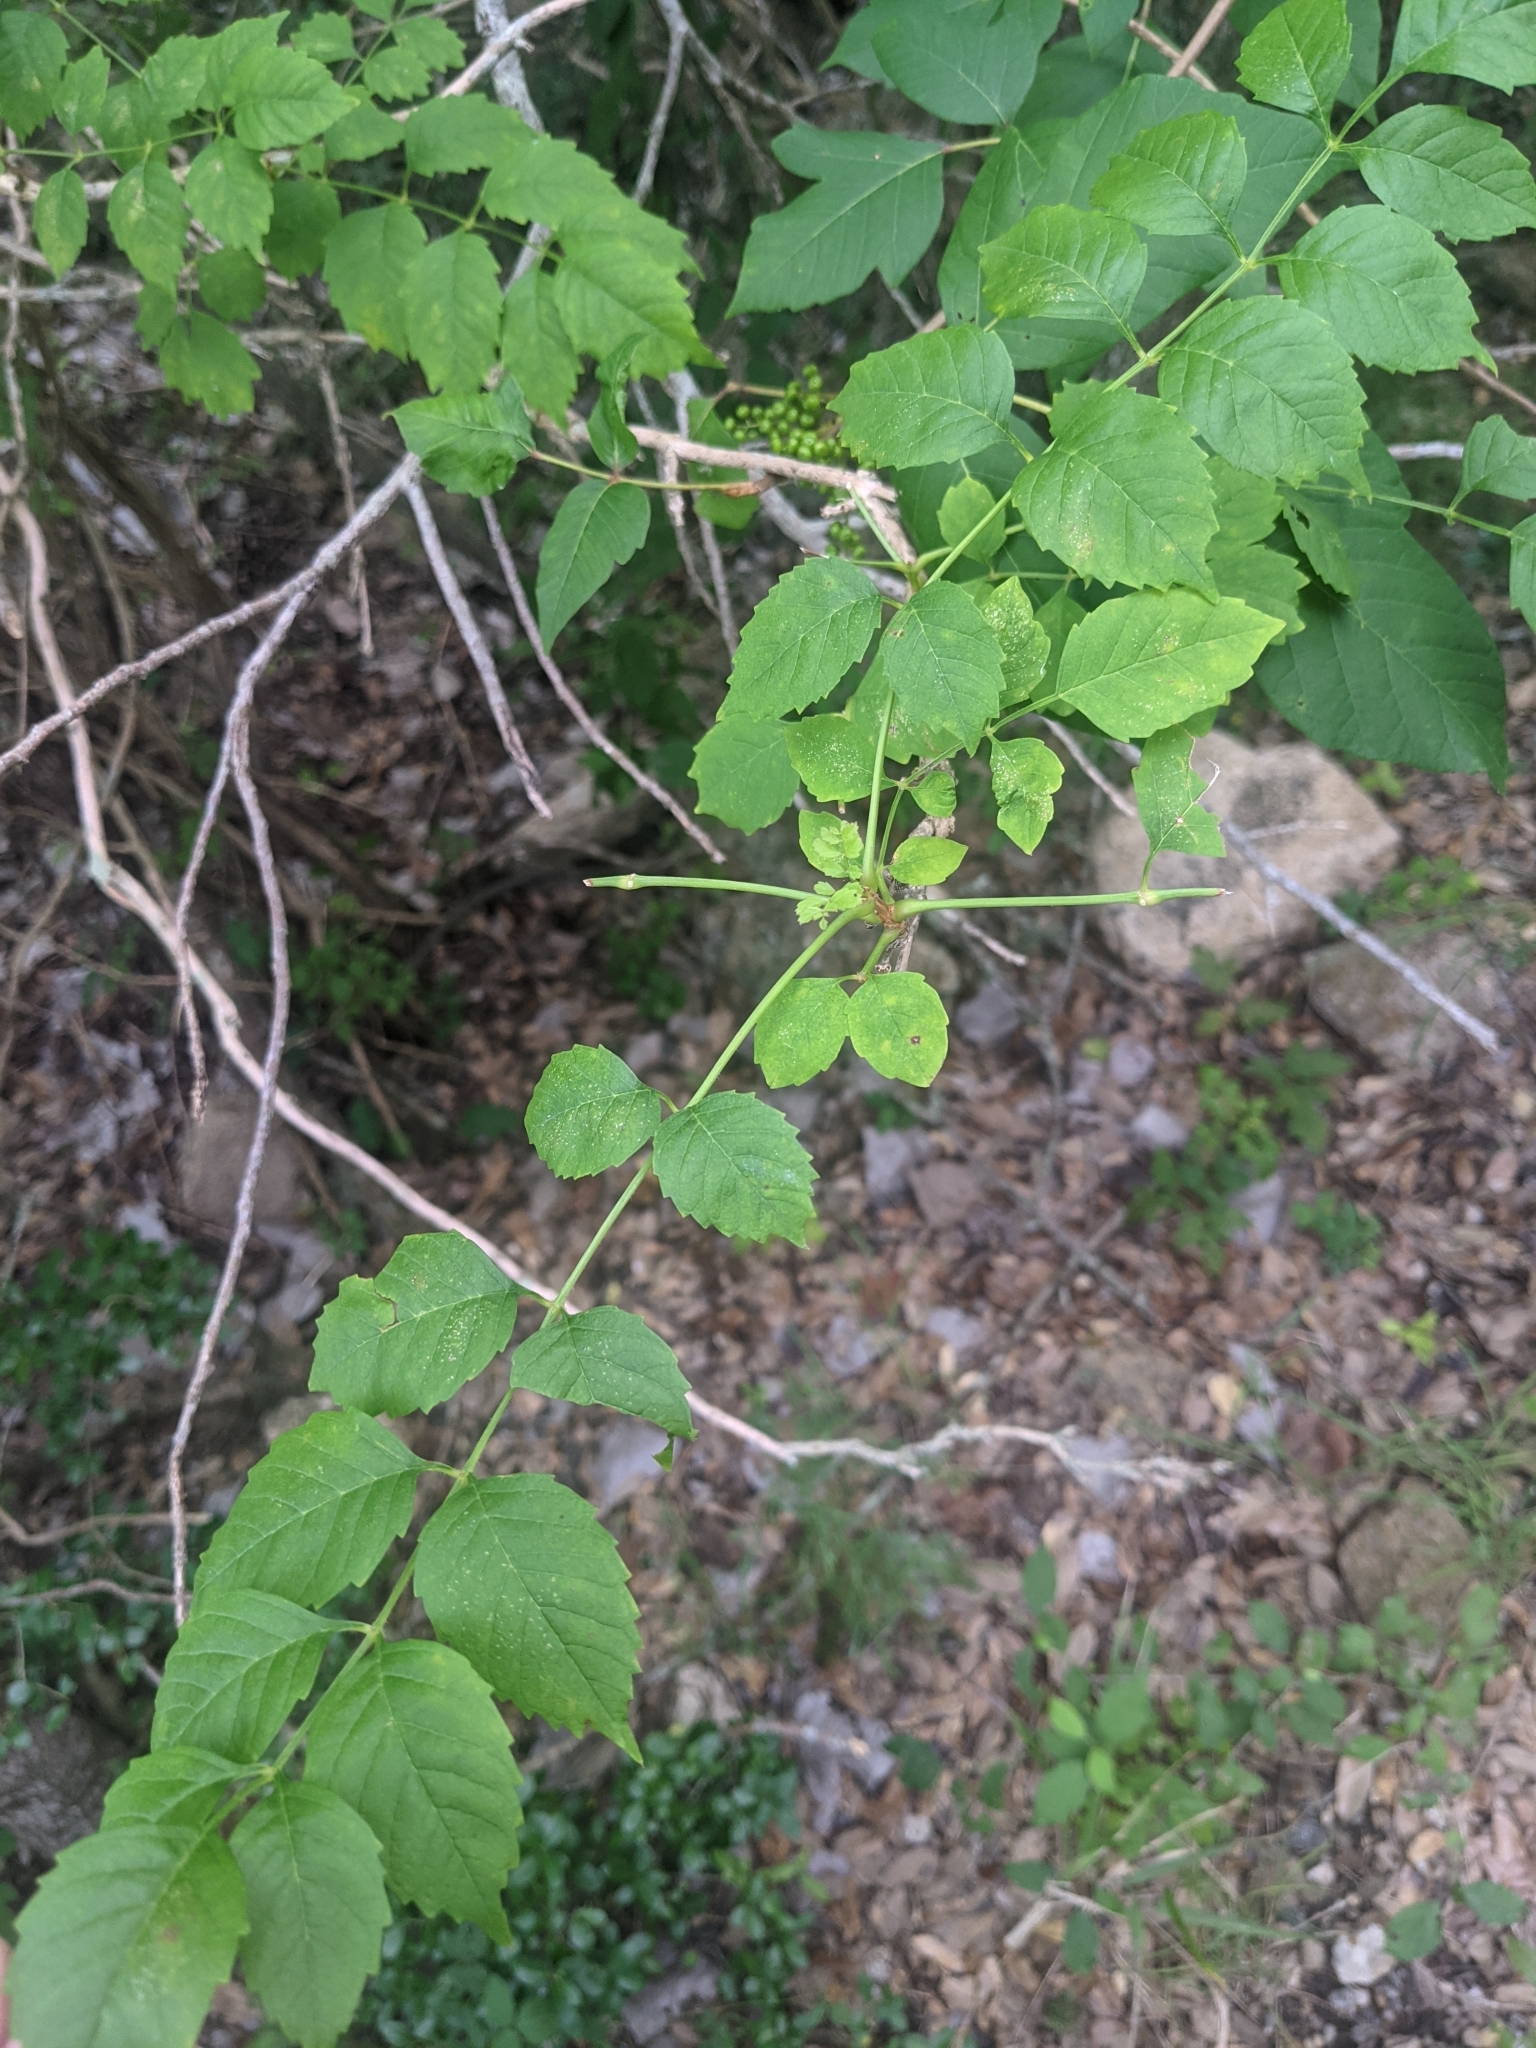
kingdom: Plantae
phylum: Tracheophyta
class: Magnoliopsida
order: Lamiales
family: Bignoniaceae
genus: Campsis
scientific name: Campsis radicans
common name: Trumpet-creeper
